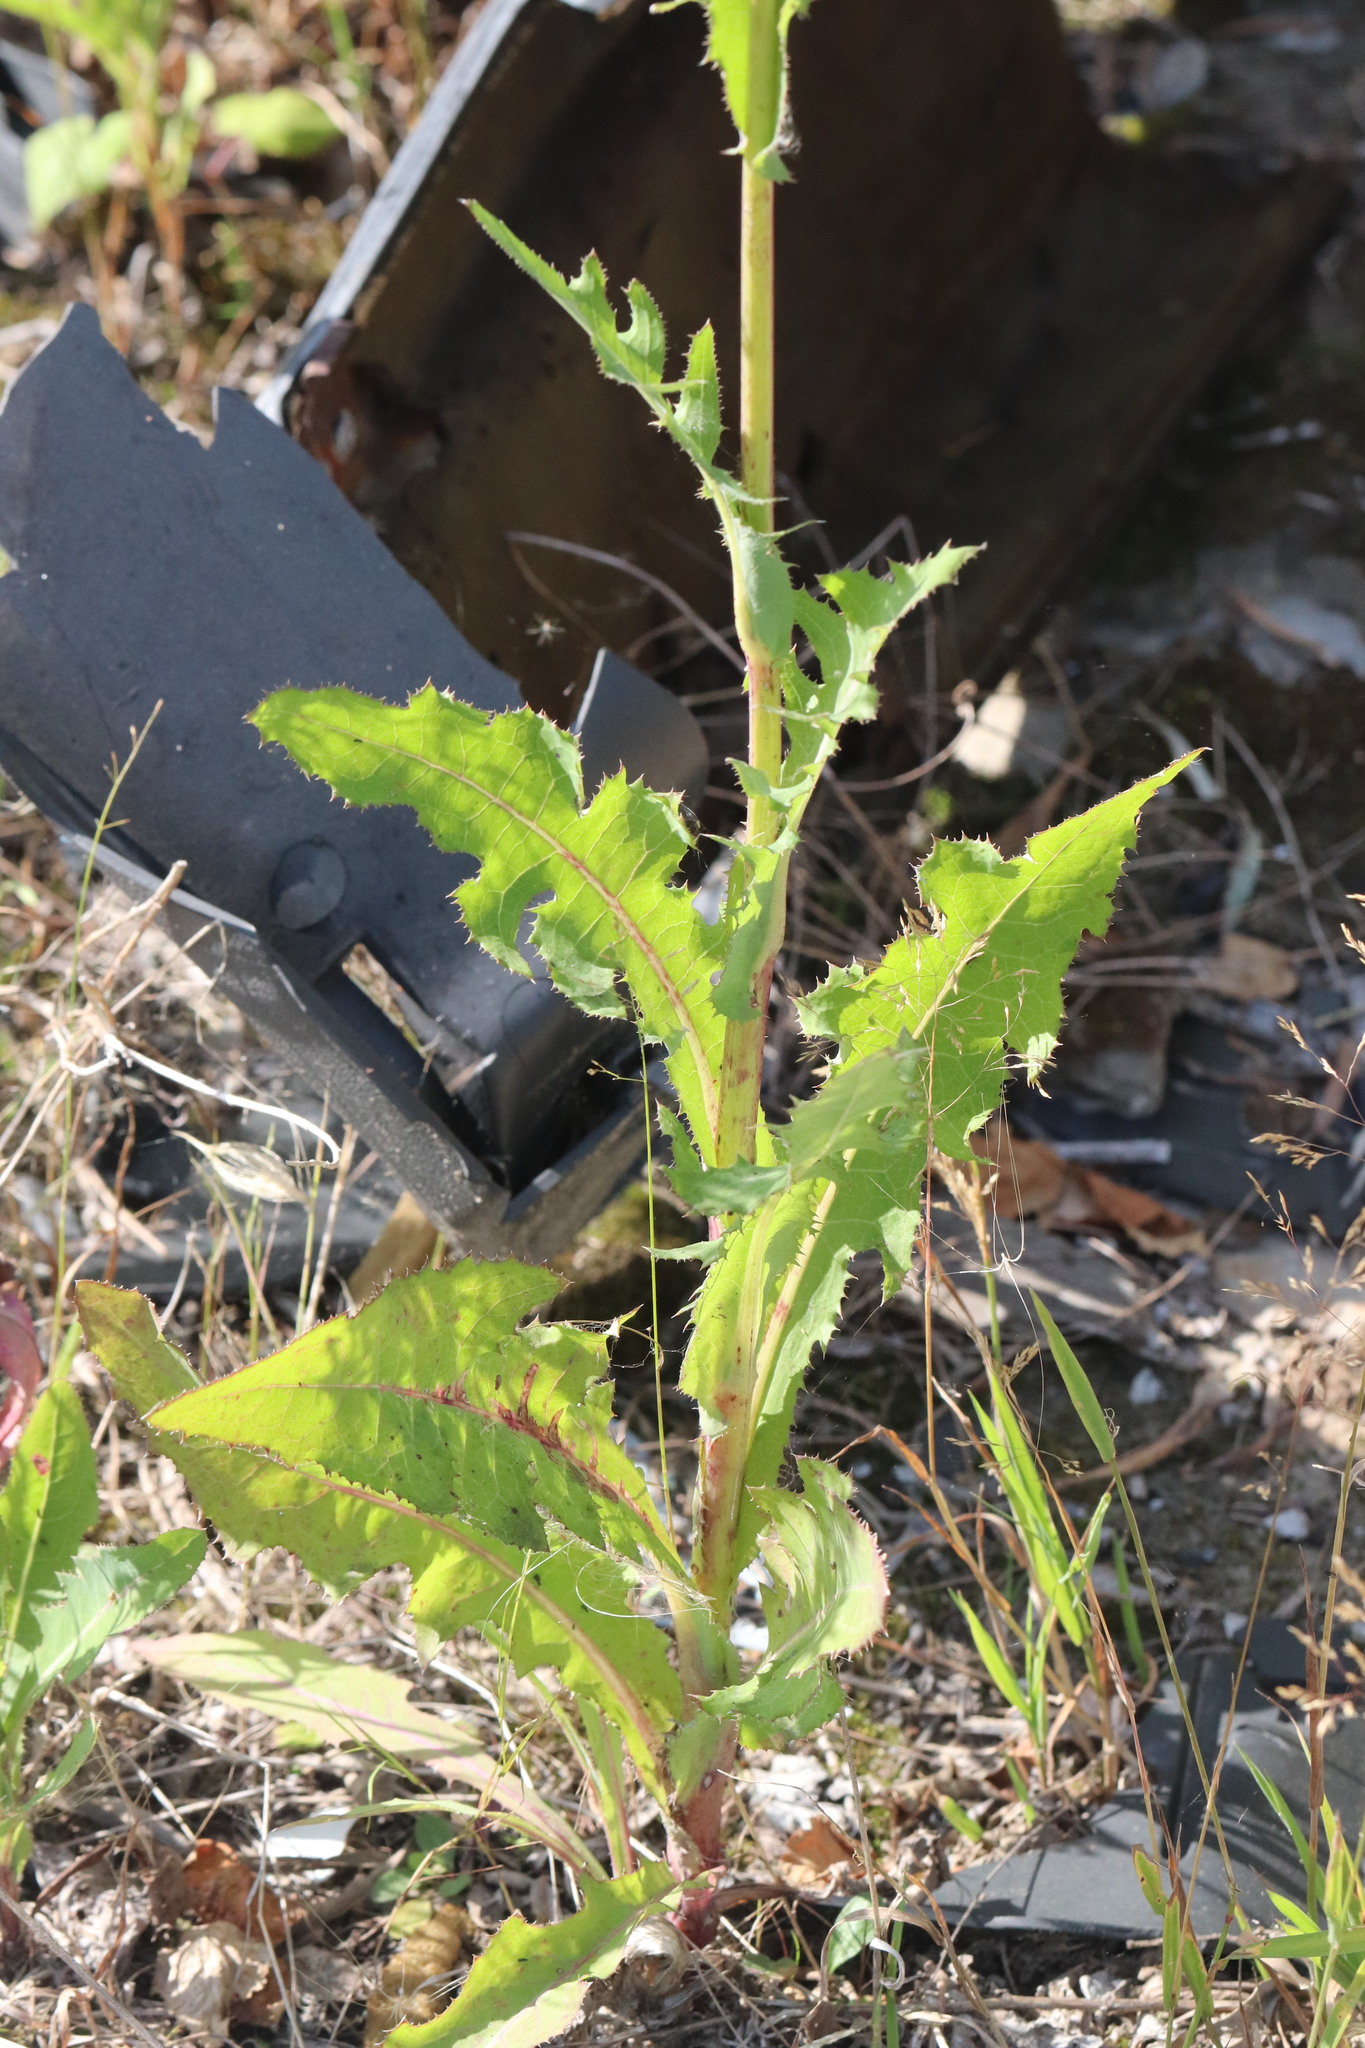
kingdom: Plantae
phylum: Tracheophyta
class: Magnoliopsida
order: Asterales
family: Asteraceae
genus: Sonchus
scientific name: Sonchus arvensis
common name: Perennial sow-thistle
